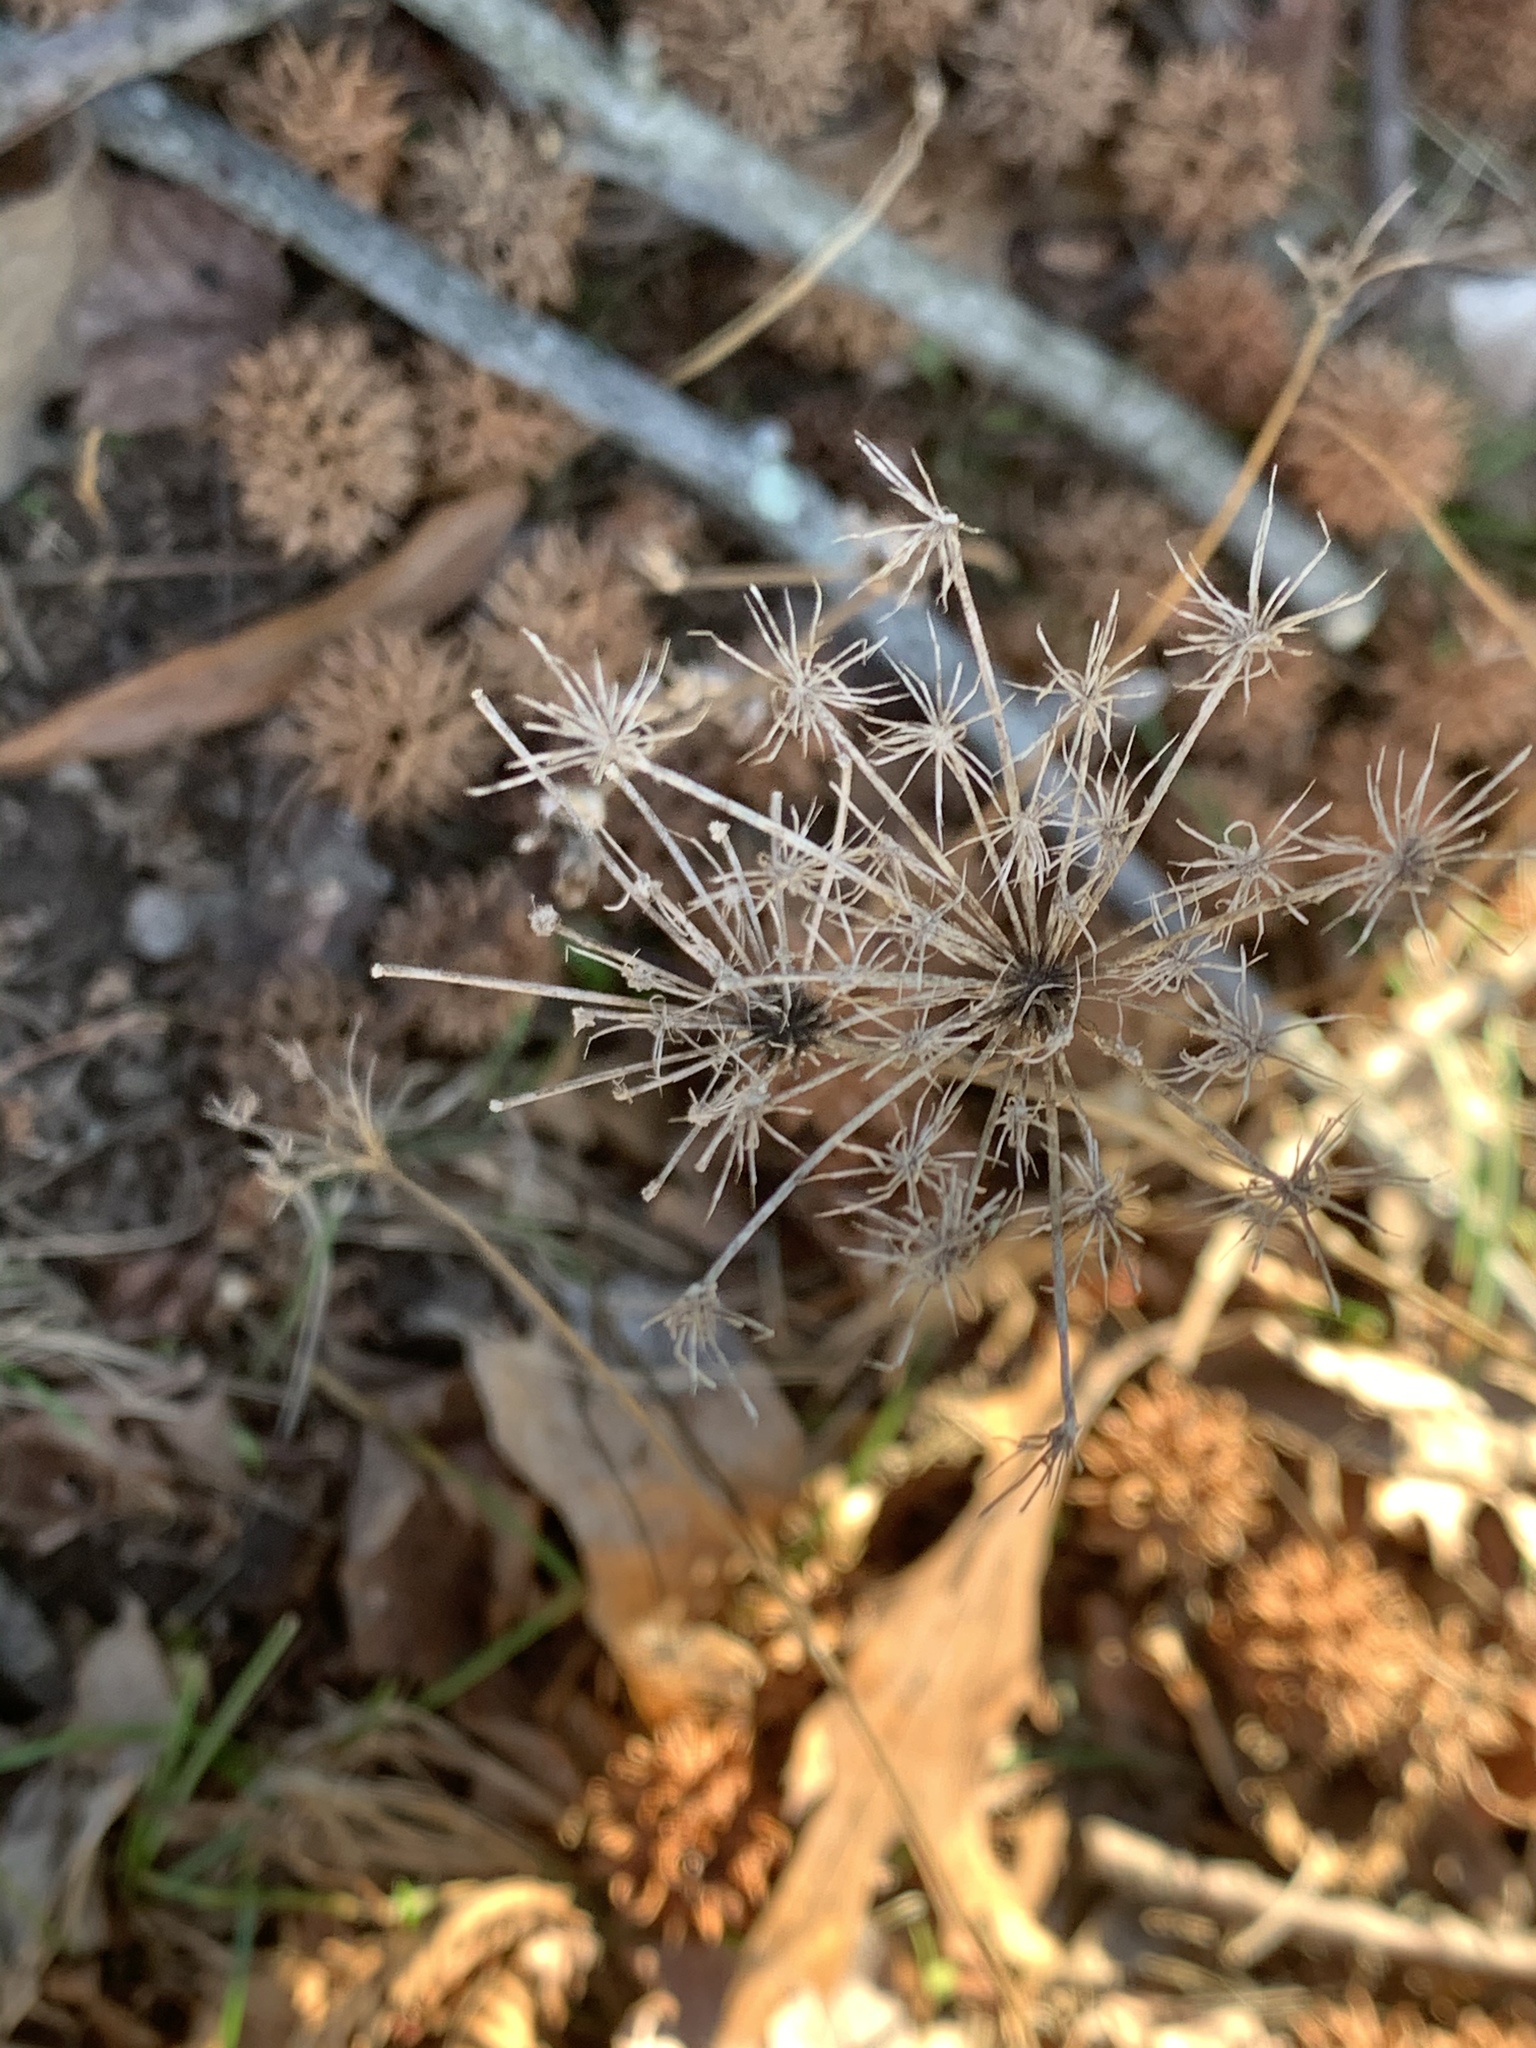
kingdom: Plantae
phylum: Tracheophyta
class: Magnoliopsida
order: Apiales
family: Apiaceae
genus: Daucus
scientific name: Daucus carota
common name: Wild carrot
